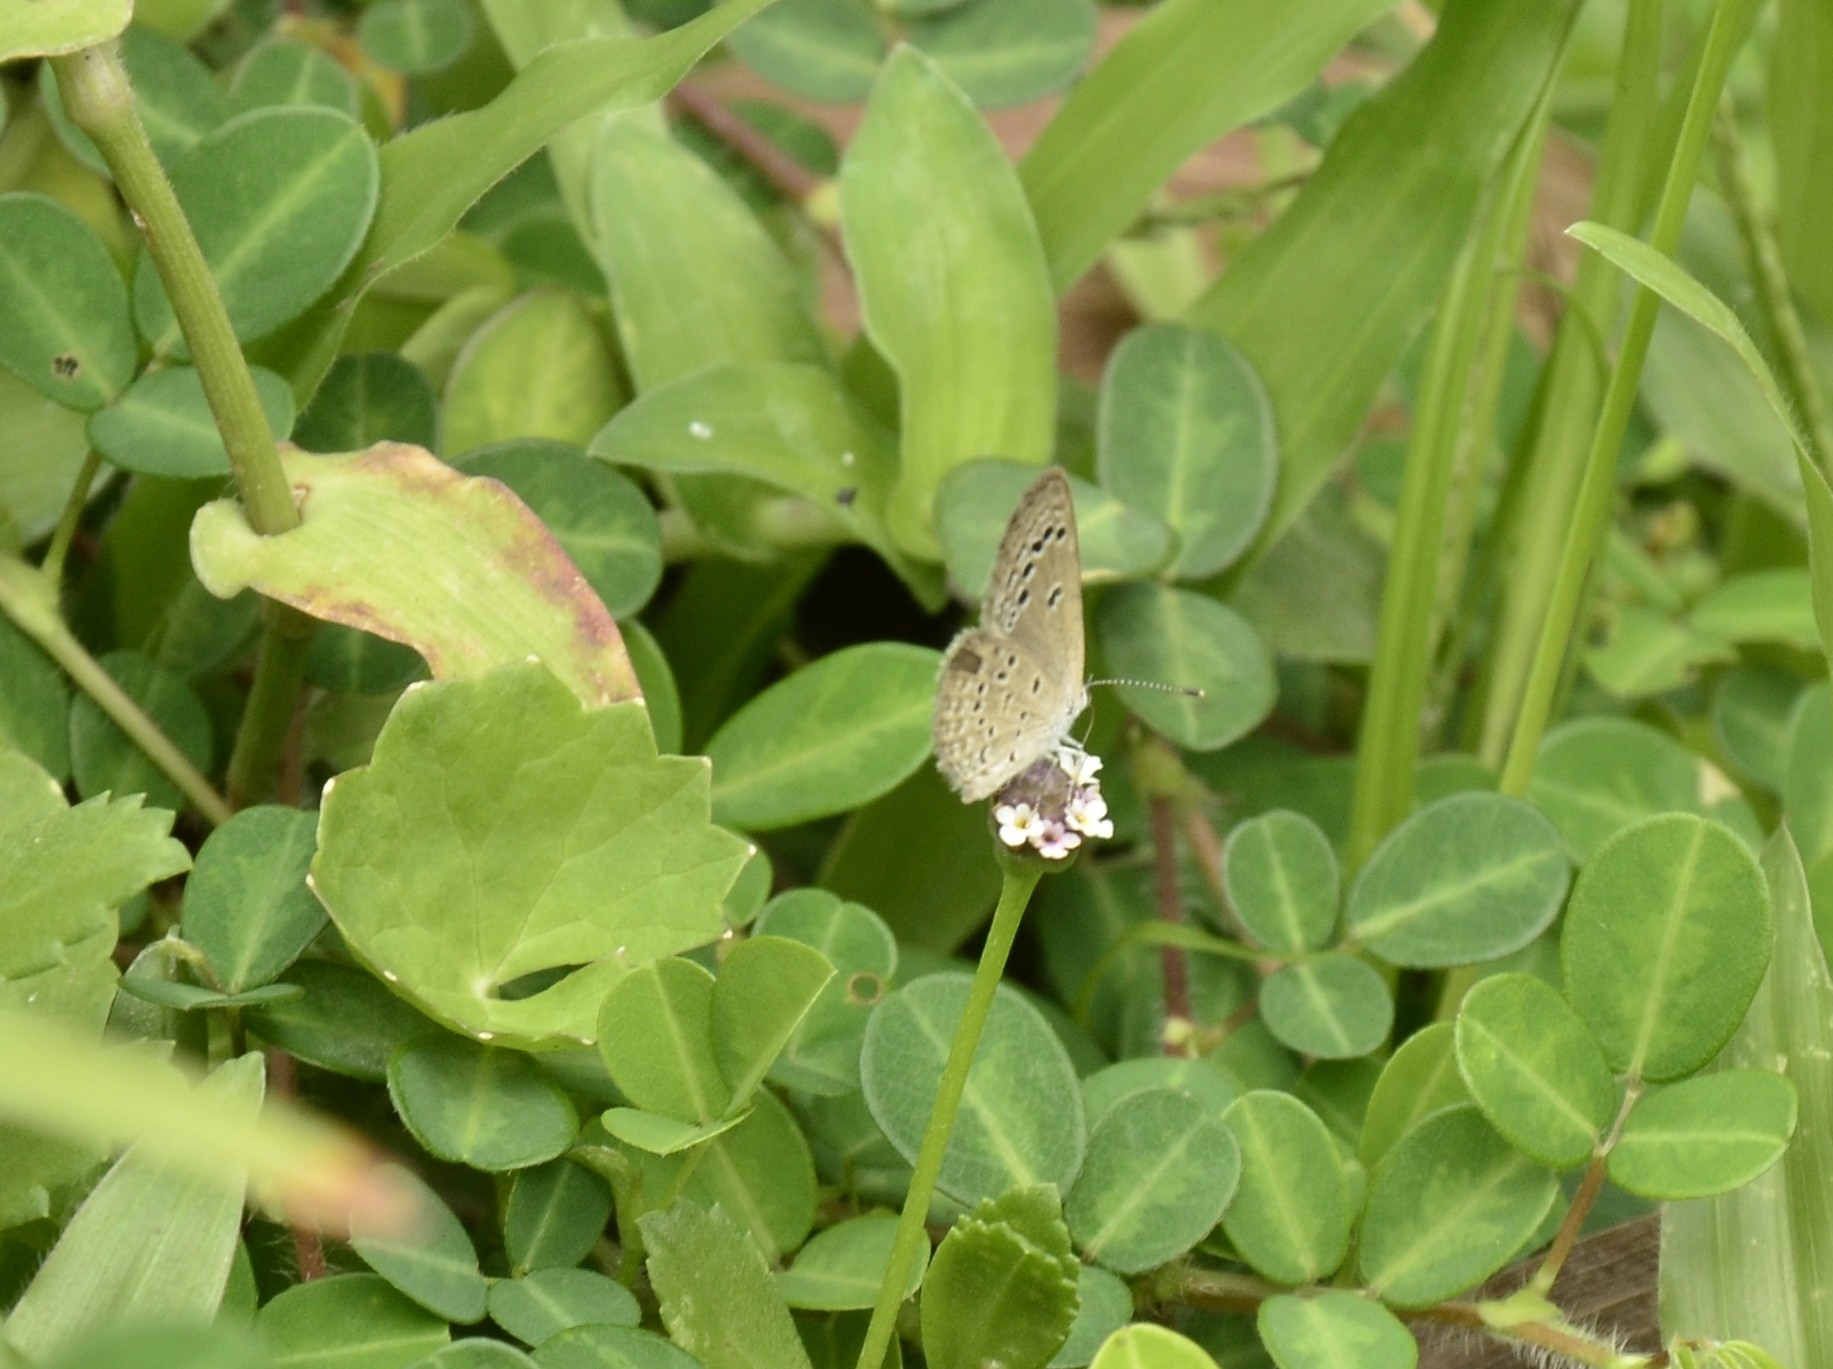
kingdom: Animalia
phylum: Arthropoda
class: Insecta
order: Lepidoptera
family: Lycaenidae
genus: Zizina
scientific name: Zizina otis
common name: Lesser grass blue
